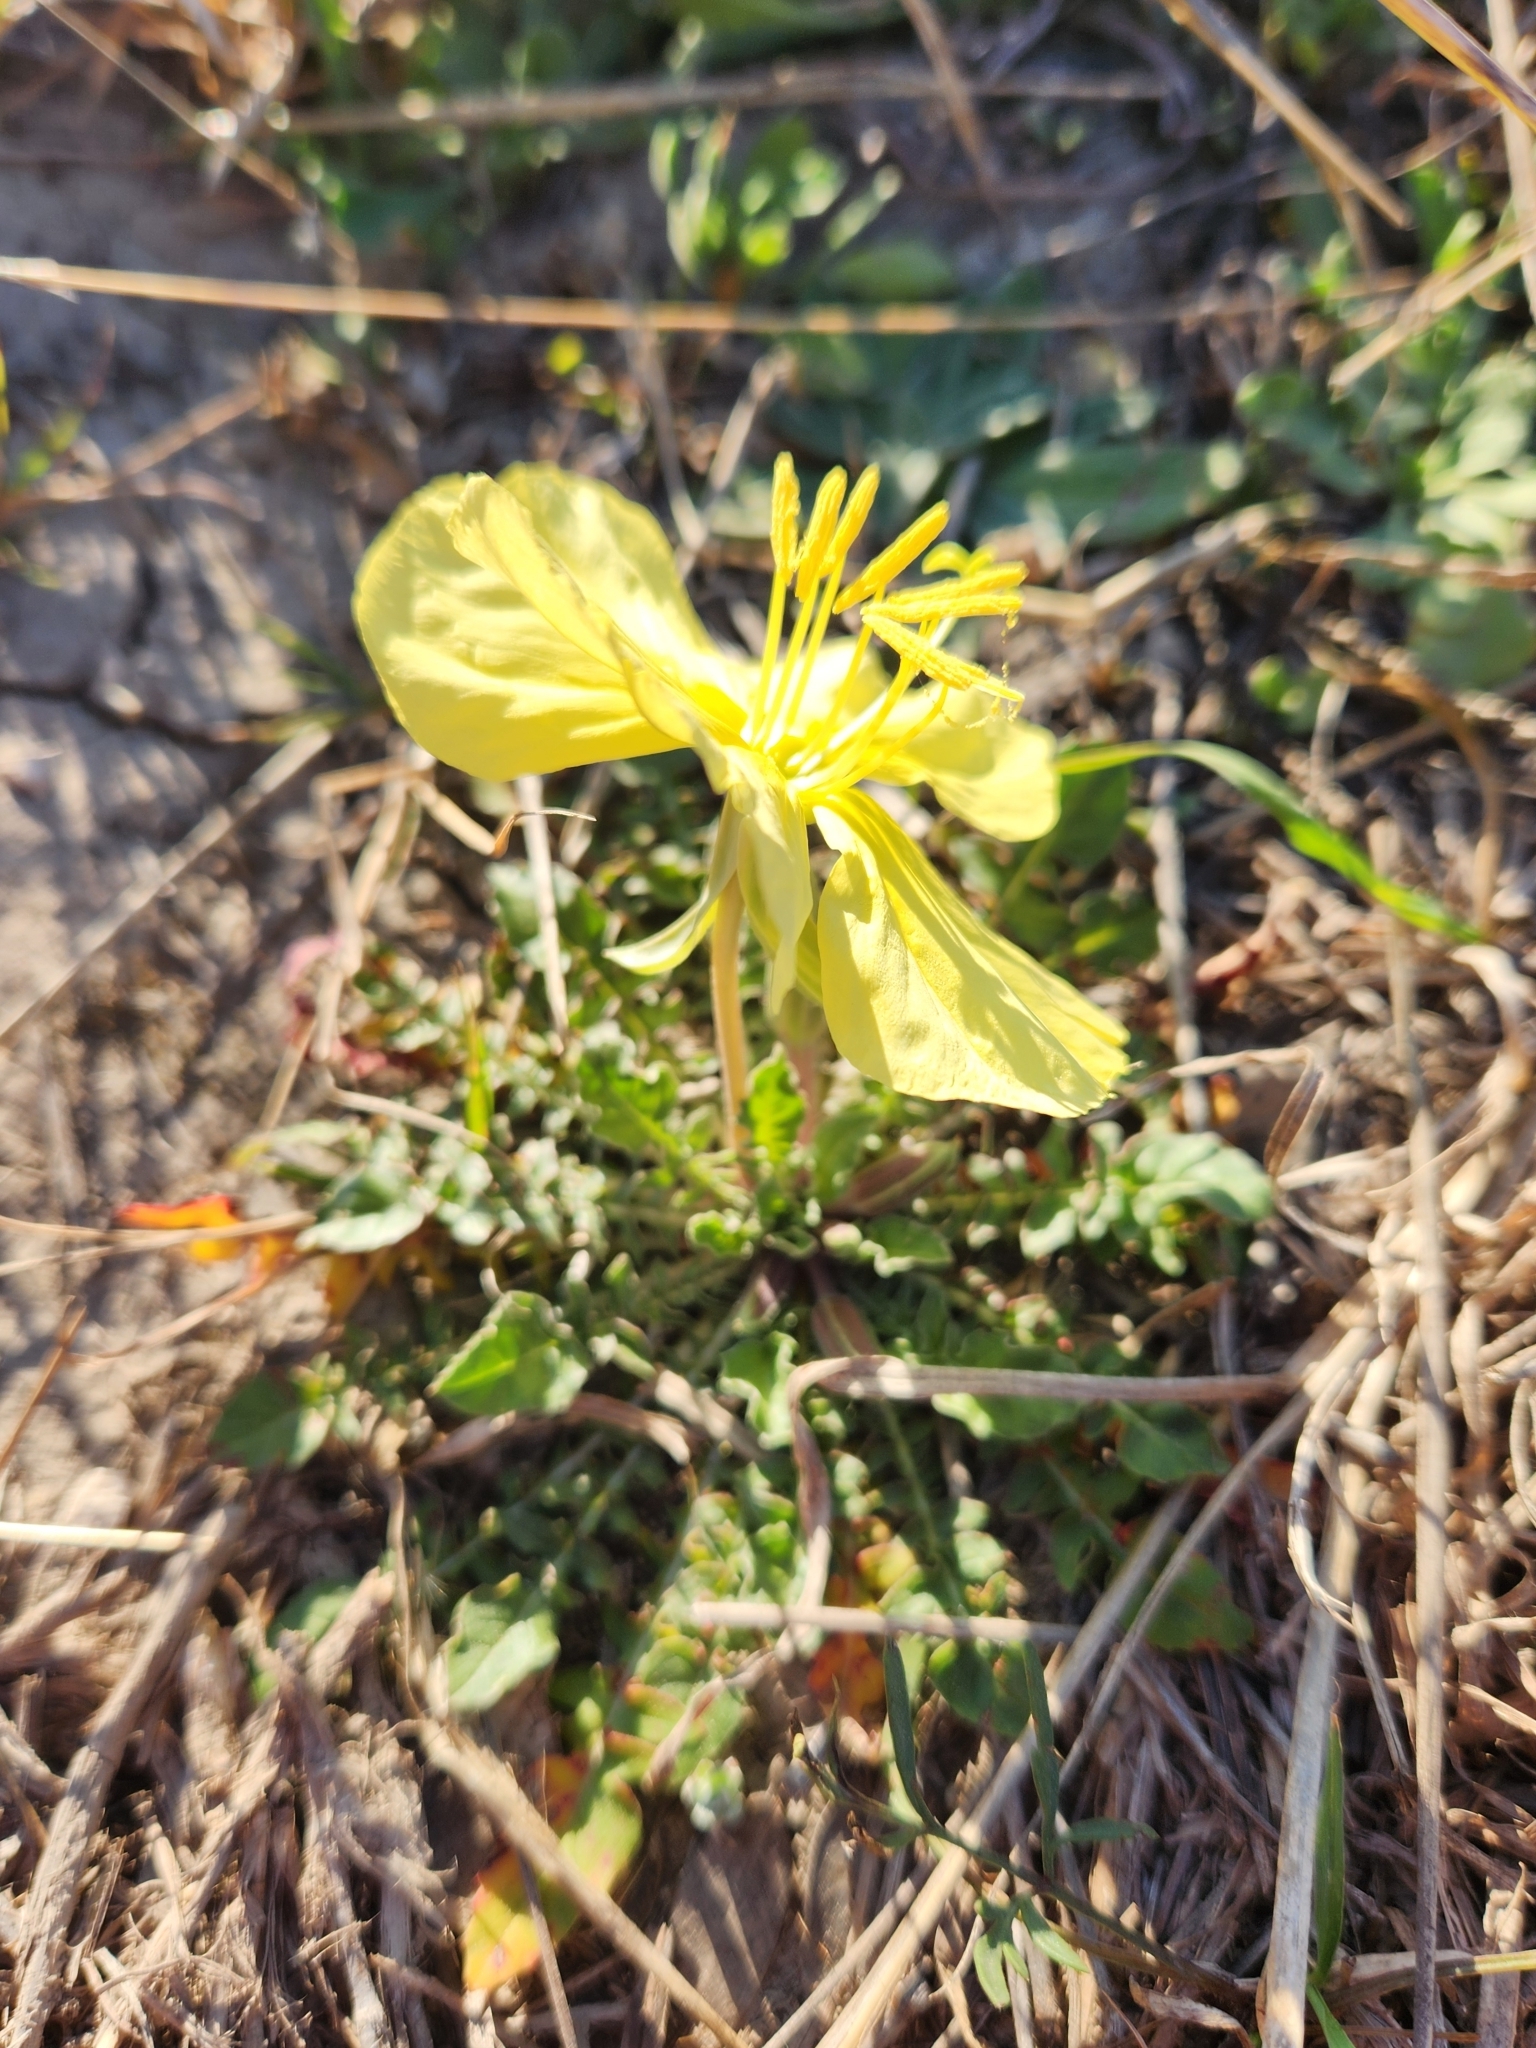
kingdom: Plantae
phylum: Tracheophyta
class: Magnoliopsida
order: Myrtales
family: Onagraceae
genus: Oenothera
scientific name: Oenothera triloba
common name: Sessile evening-primrose
